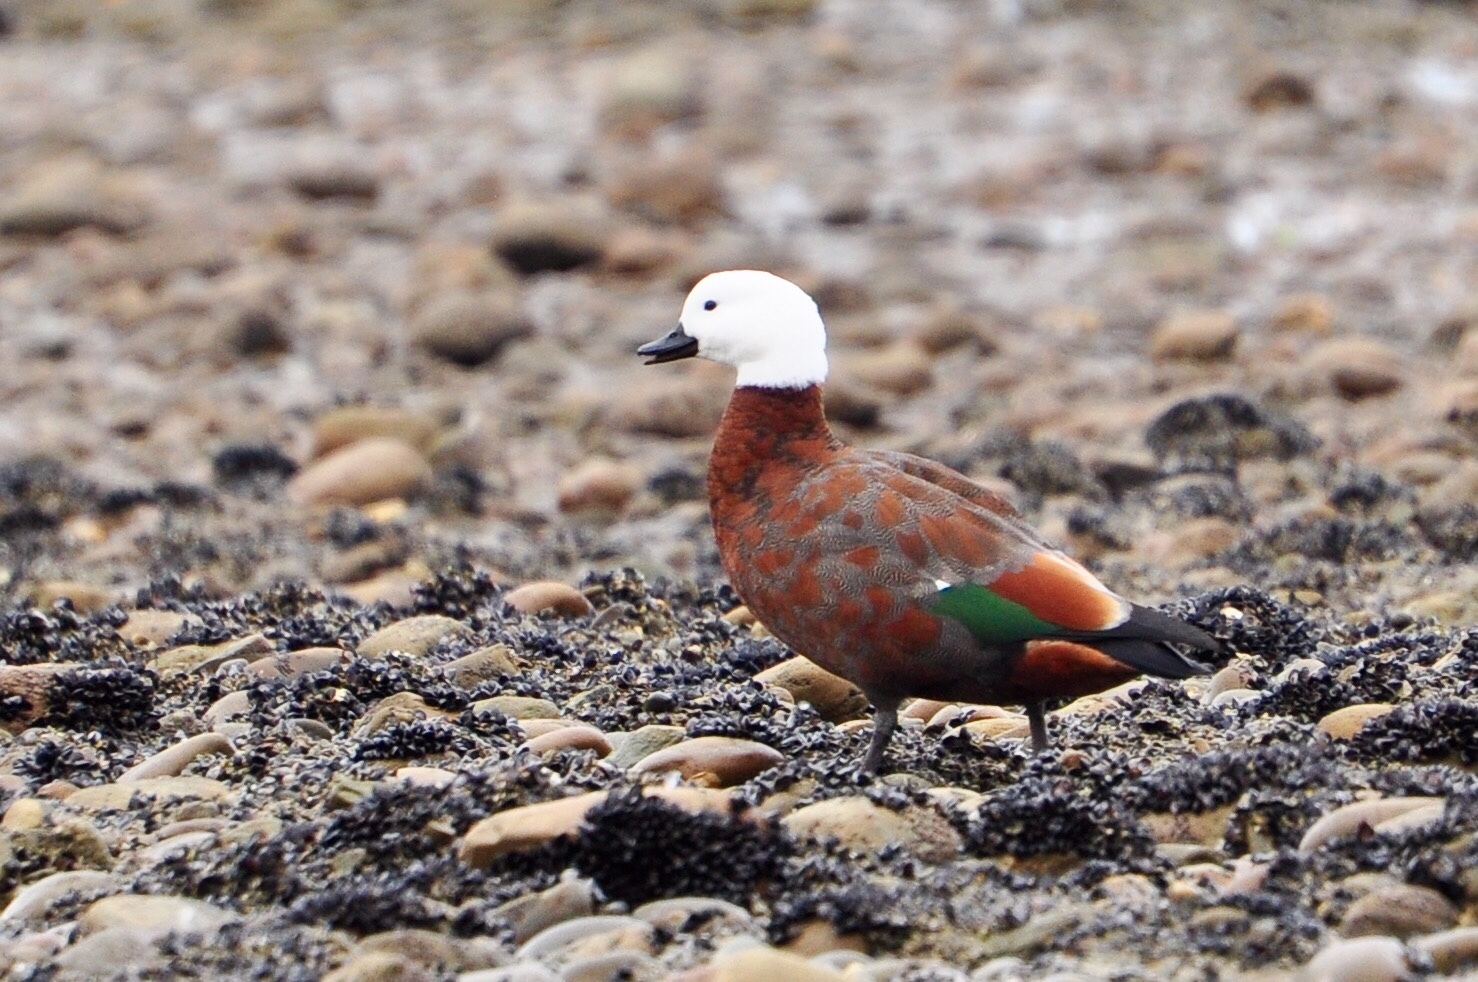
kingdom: Animalia
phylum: Chordata
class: Aves
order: Anseriformes
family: Anatidae
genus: Tadorna
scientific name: Tadorna variegata
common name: Paradise shelduck
